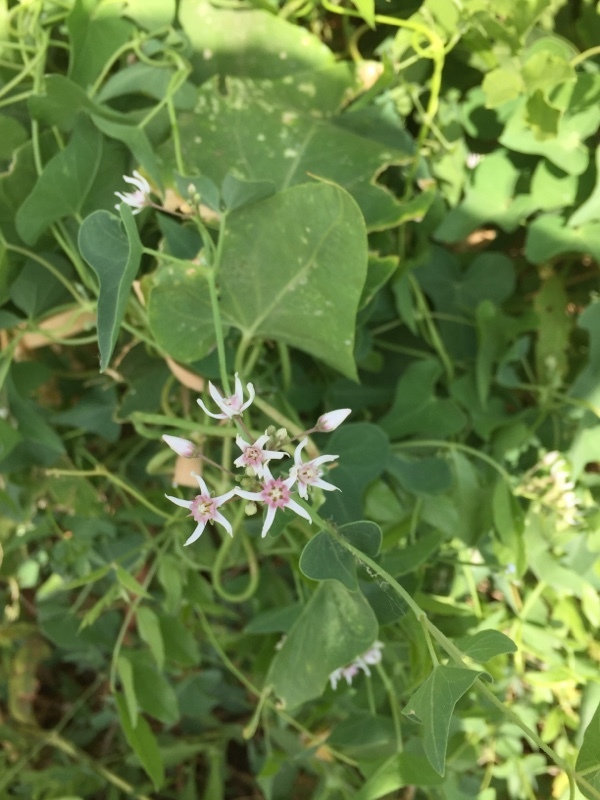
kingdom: Plantae
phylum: Tracheophyta
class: Magnoliopsida
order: Gentianales
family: Apocynaceae
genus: Cynanchum
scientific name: Cynanchum acutum
